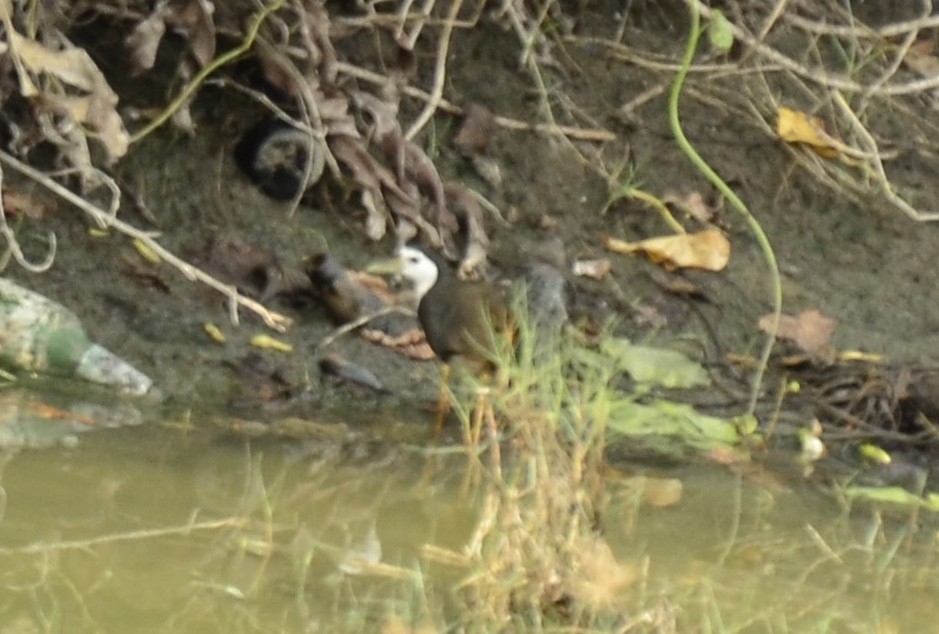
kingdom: Animalia
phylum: Chordata
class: Aves
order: Gruiformes
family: Rallidae
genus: Amaurornis
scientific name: Amaurornis phoenicurus
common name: White-breasted waterhen
